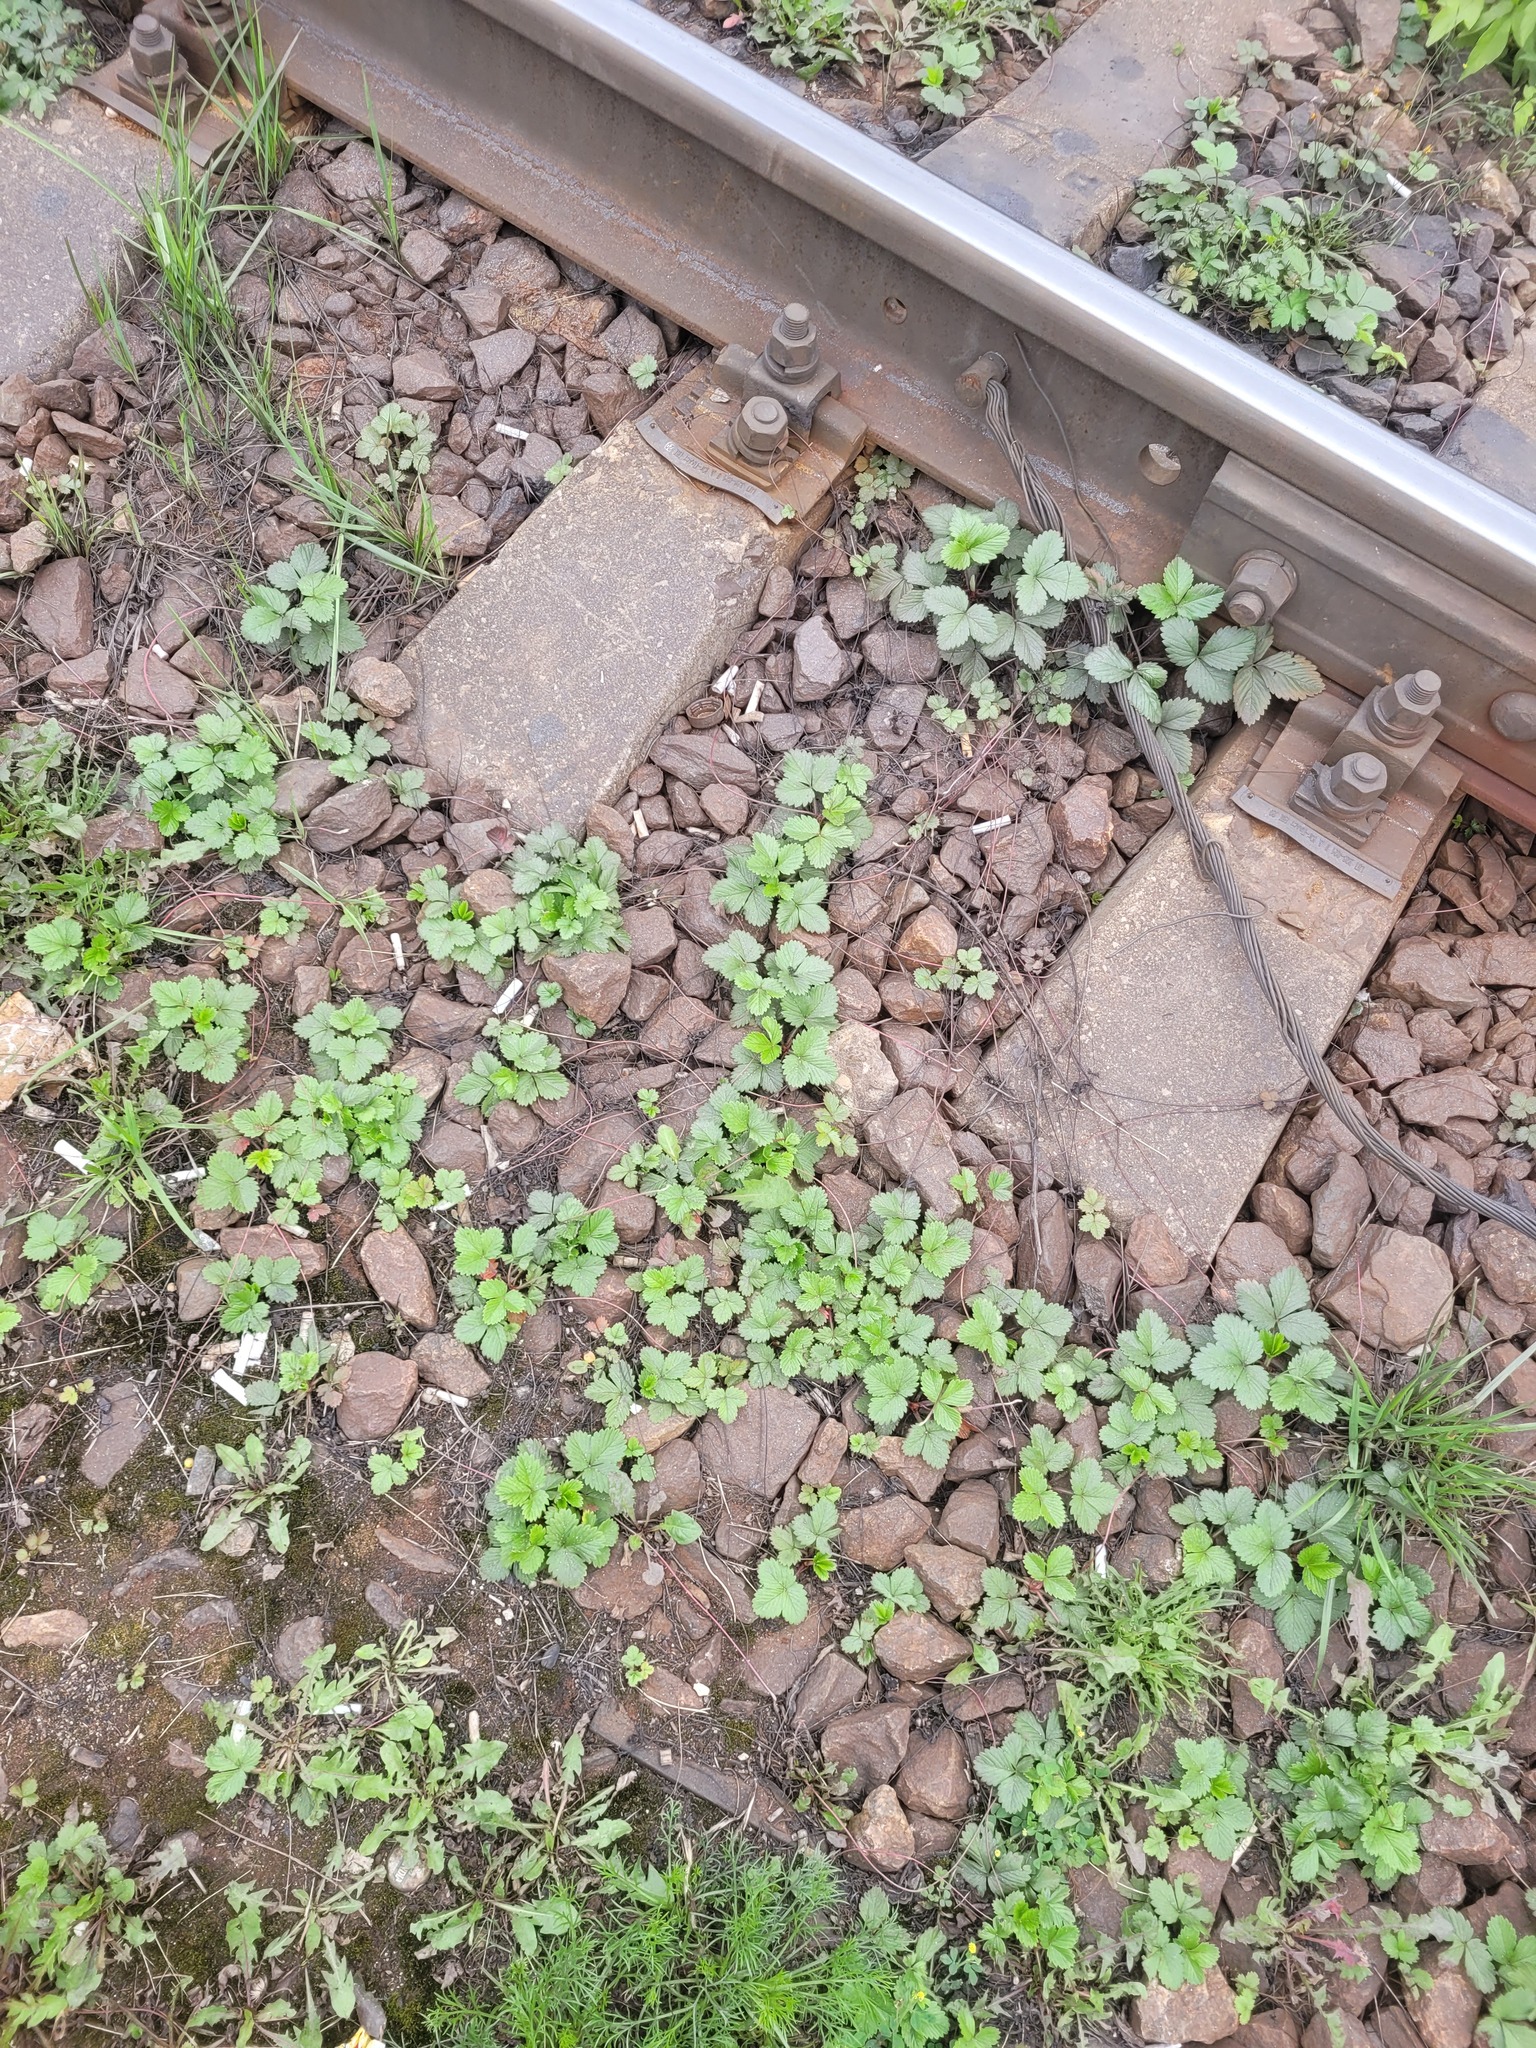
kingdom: Plantae
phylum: Tracheophyta
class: Magnoliopsida
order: Rosales
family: Rosaceae
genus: Fragaria
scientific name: Fragaria vesca
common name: Wild strawberry
